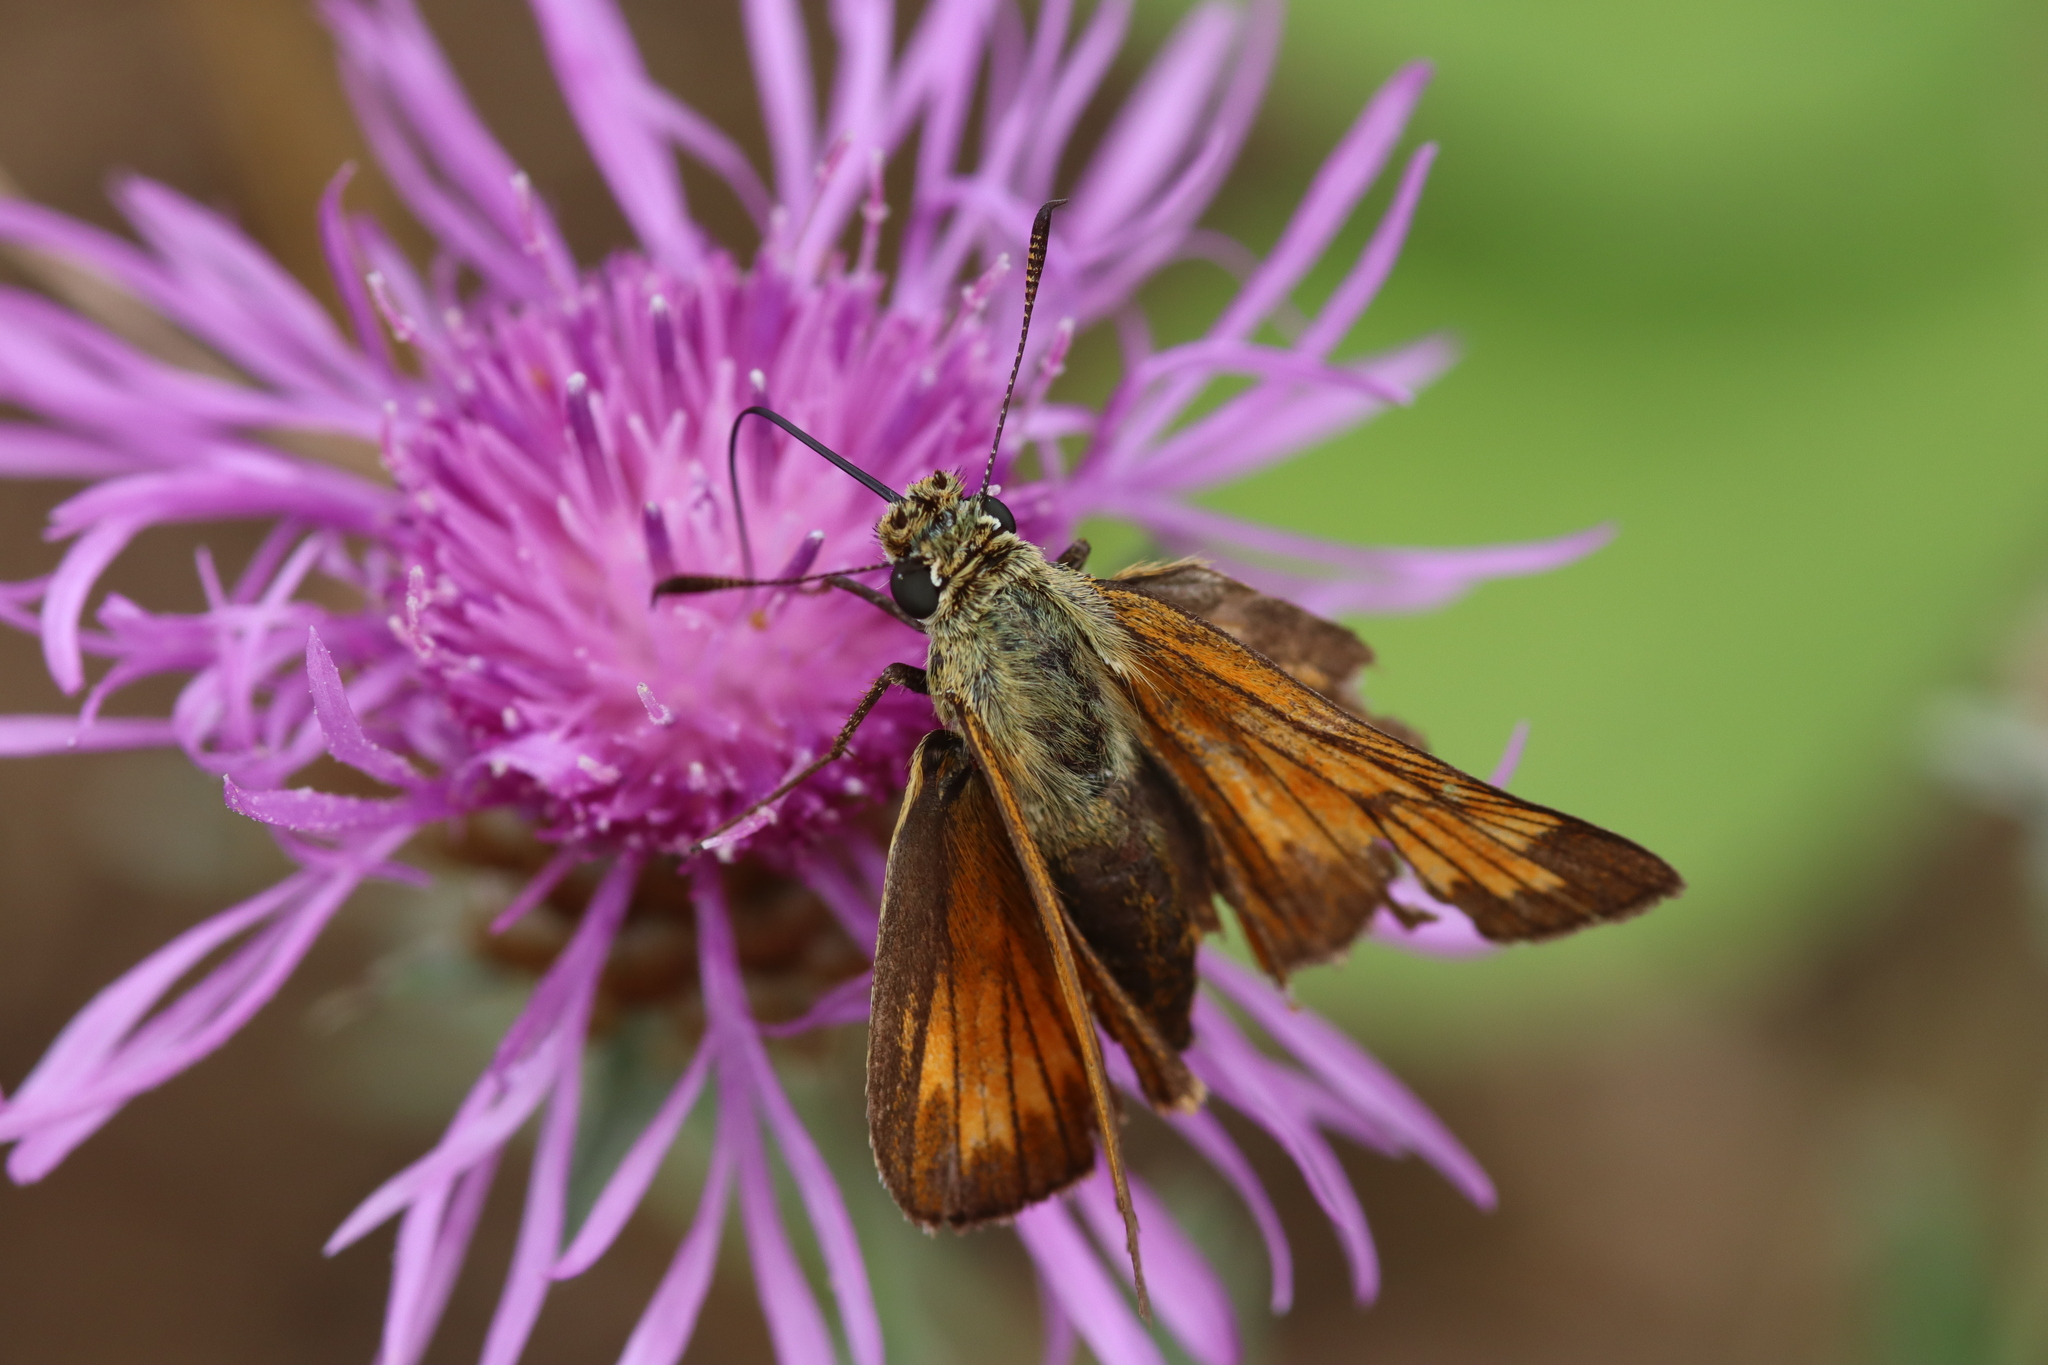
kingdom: Animalia
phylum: Arthropoda
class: Insecta
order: Lepidoptera
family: Hesperiidae
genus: Ochlodes
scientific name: Ochlodes venata
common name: Large skipper
